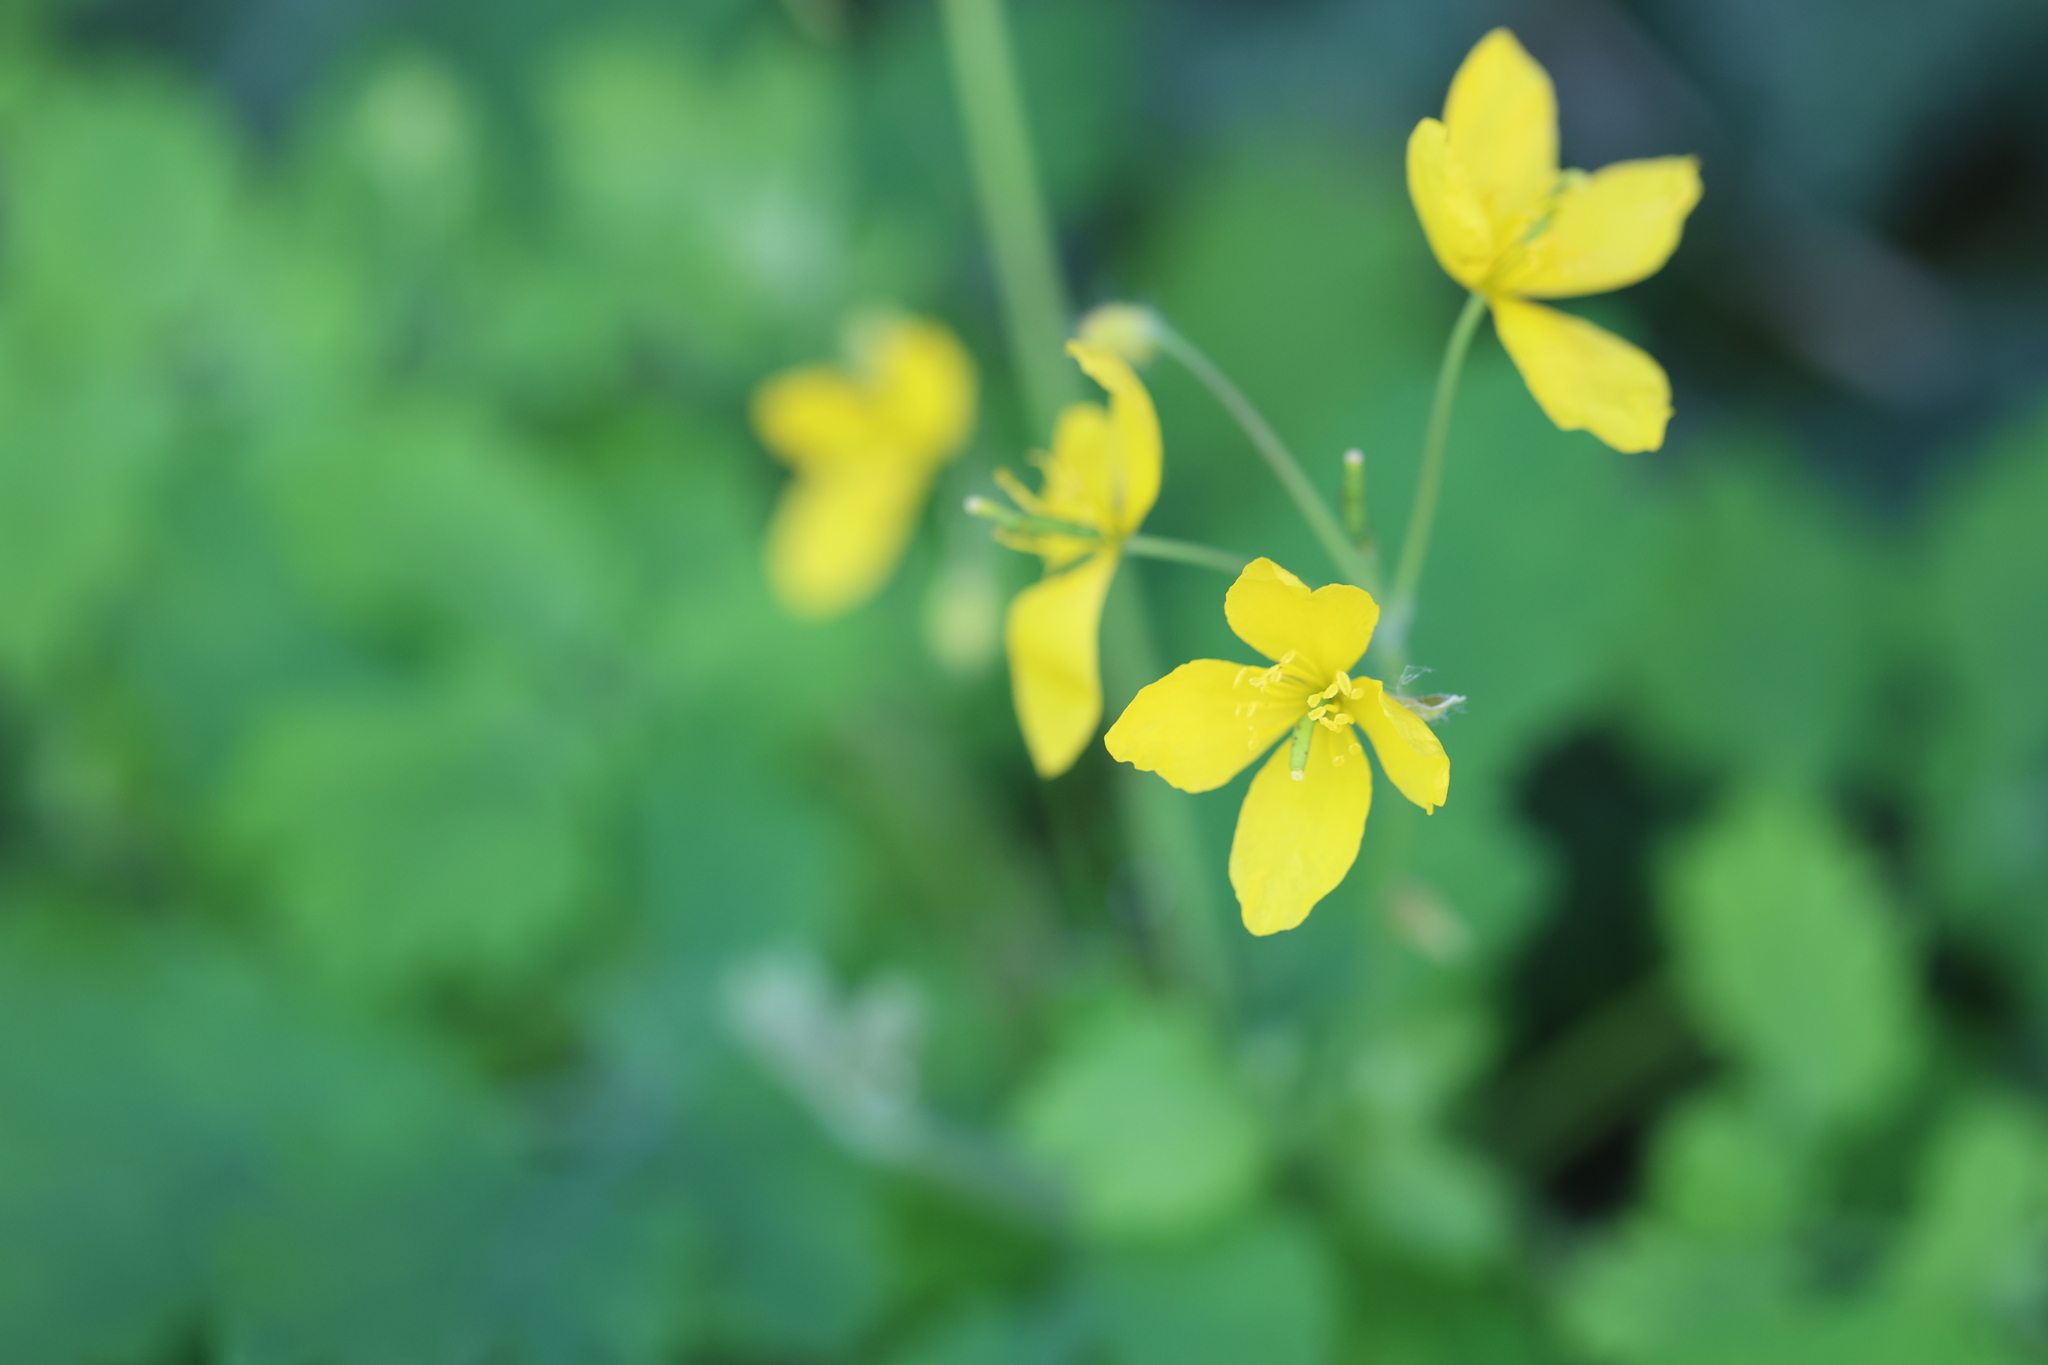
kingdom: Plantae
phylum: Tracheophyta
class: Magnoliopsida
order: Ranunculales
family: Papaveraceae
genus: Chelidonium
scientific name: Chelidonium majus
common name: Greater celandine
